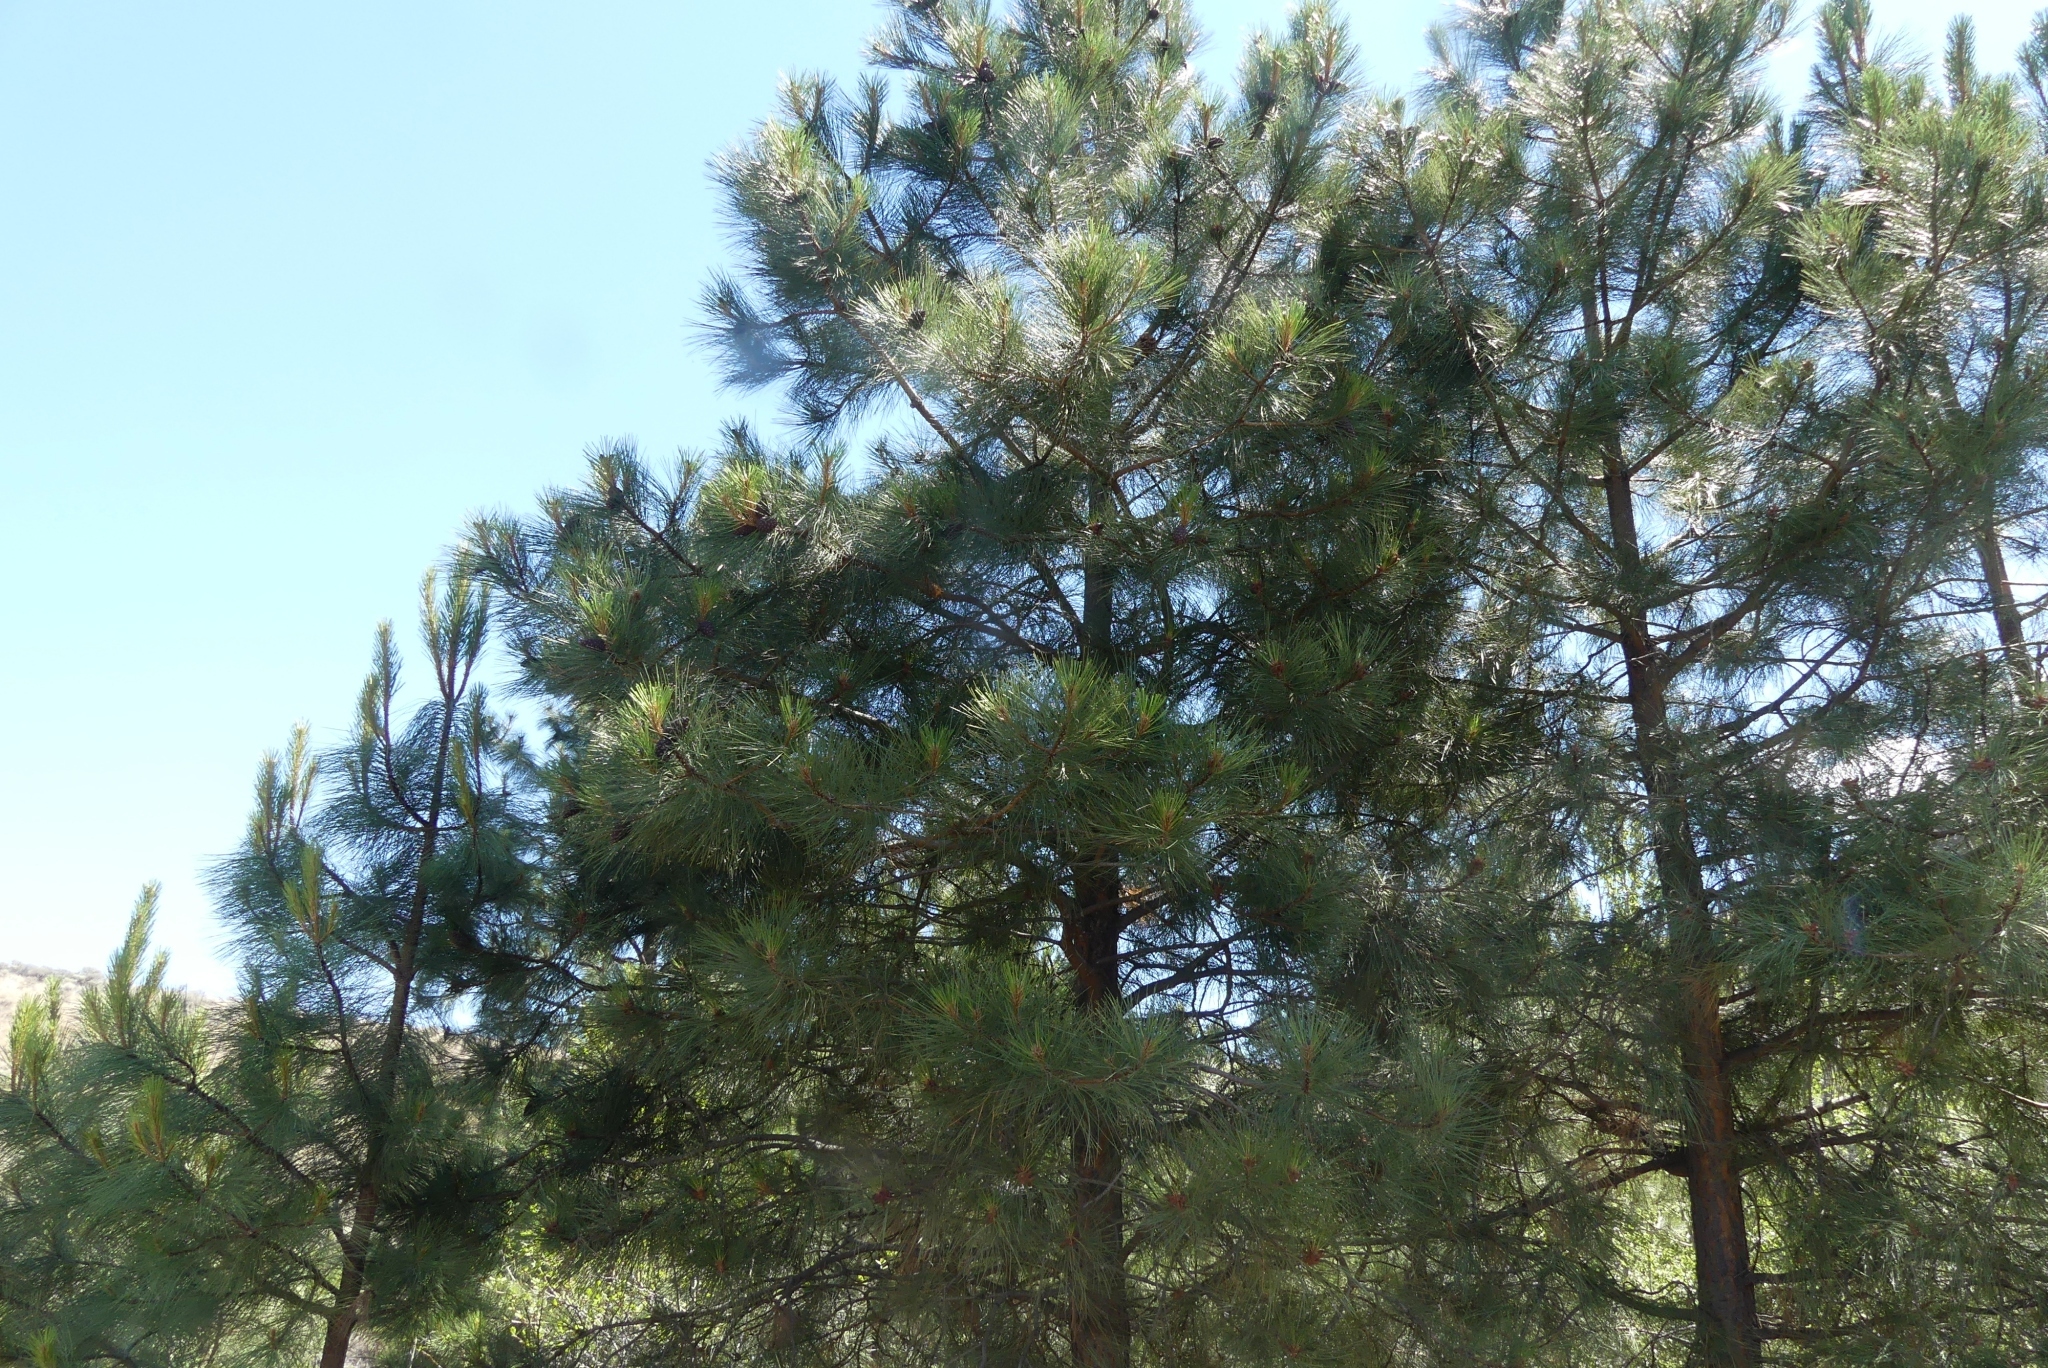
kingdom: Plantae
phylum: Tracheophyta
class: Pinopsida
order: Pinales
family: Pinaceae
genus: Pinus
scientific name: Pinus ponderosa
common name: Western yellow-pine
